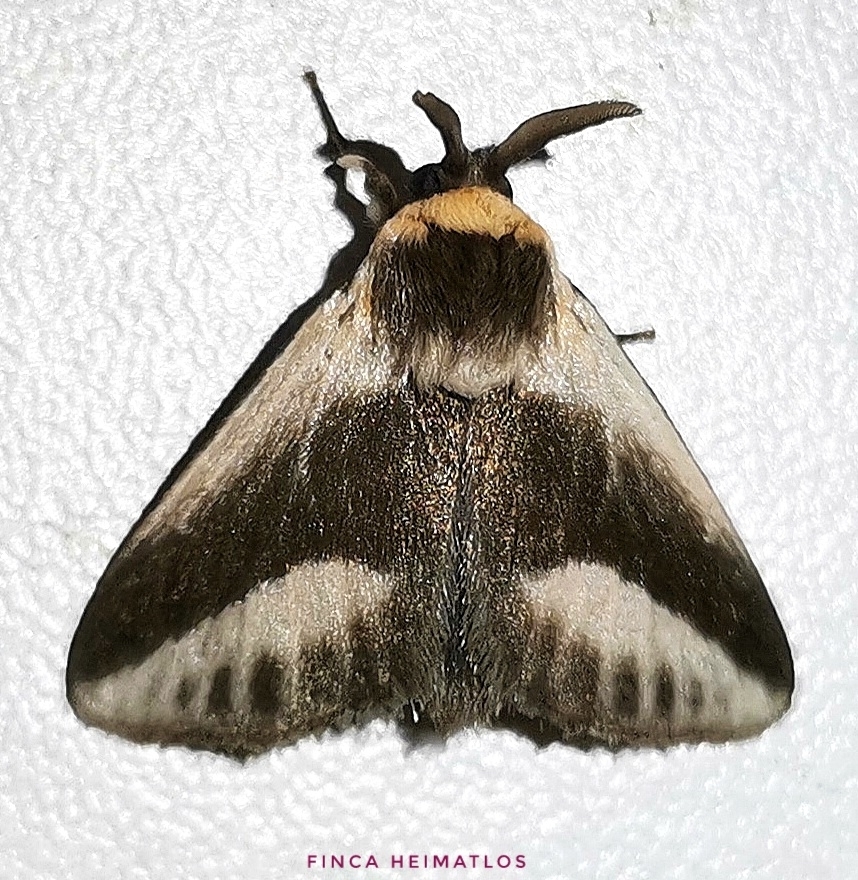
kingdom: Animalia
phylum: Arthropoda
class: Insecta
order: Lepidoptera
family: Megalopygidae
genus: Mesoscia
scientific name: Mesoscia dumilla
